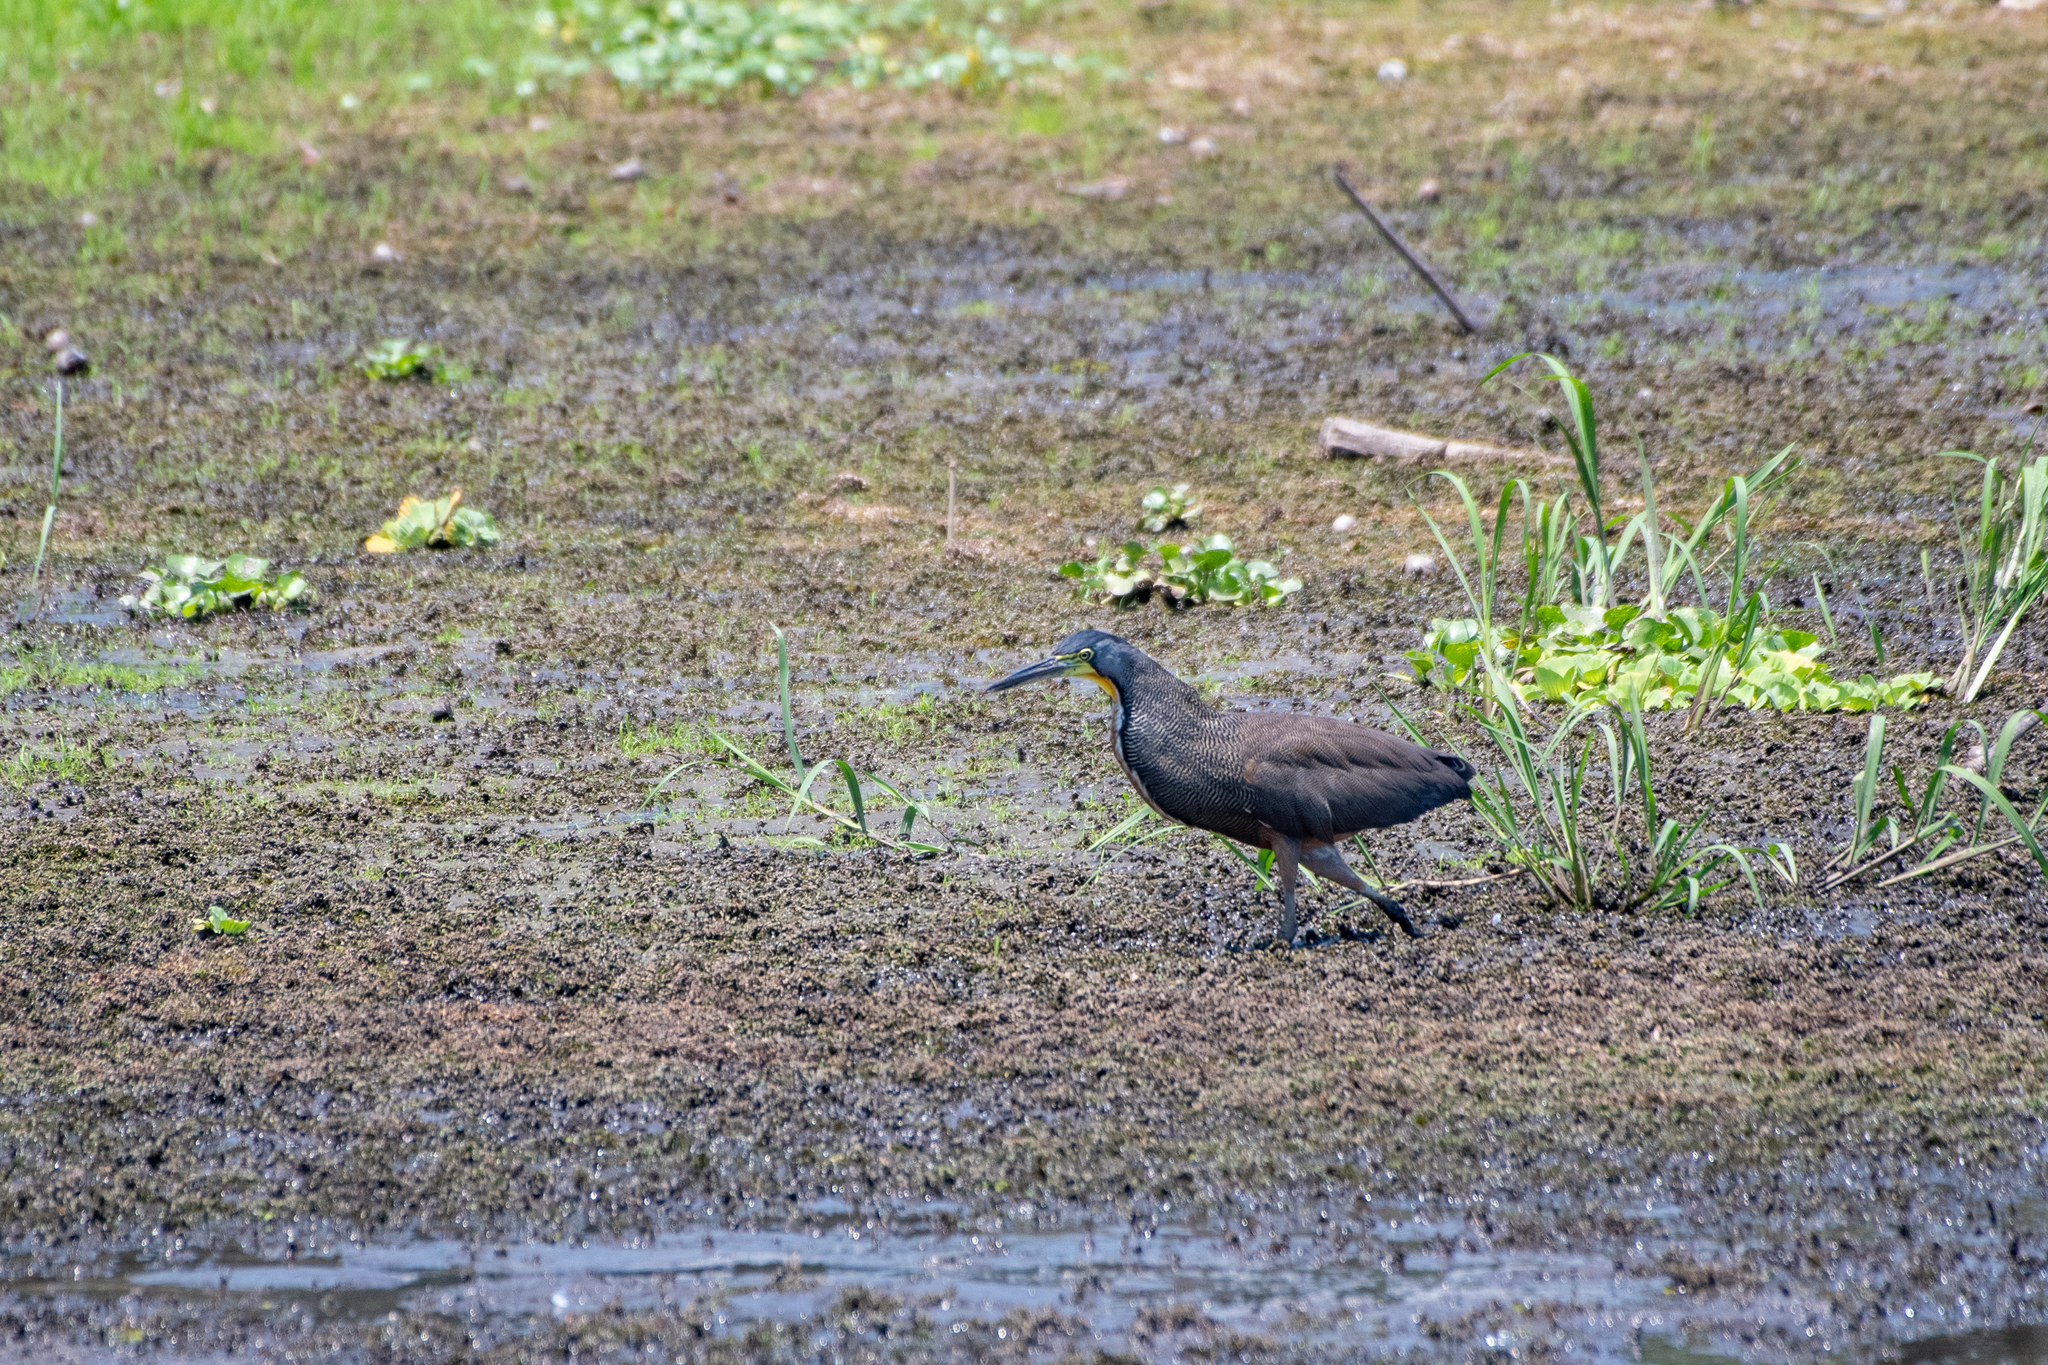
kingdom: Animalia
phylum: Chordata
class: Aves
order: Pelecaniformes
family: Ardeidae
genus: Tigrisoma
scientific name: Tigrisoma mexicanum
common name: Bare-throated tiger-heron
